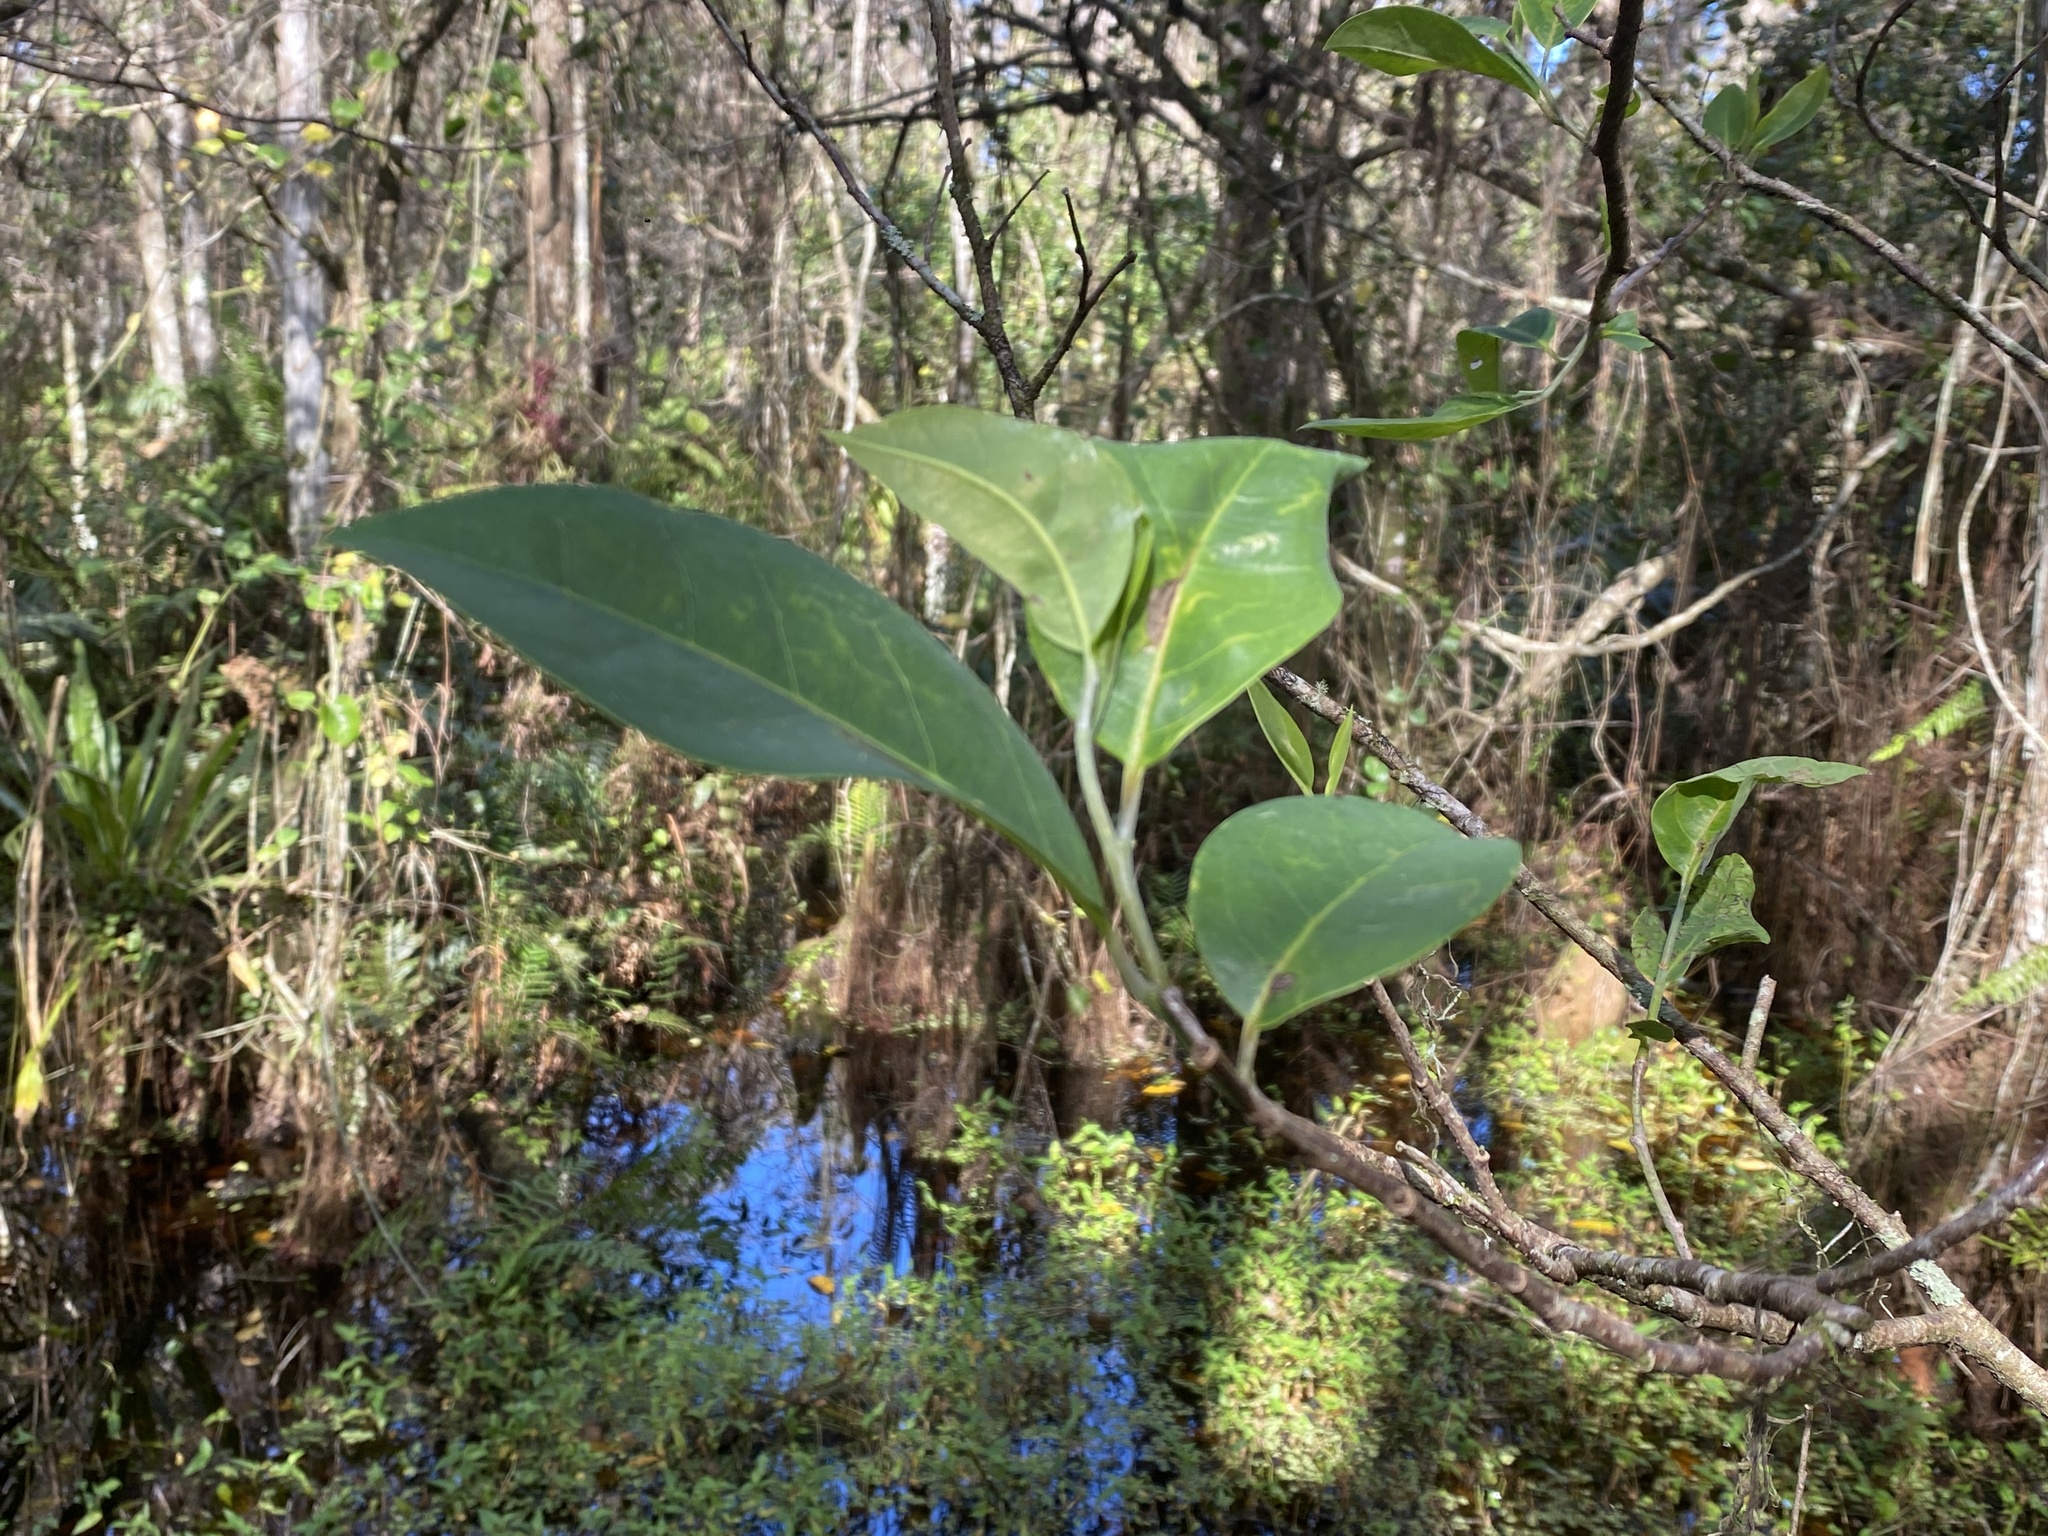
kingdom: Plantae
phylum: Tracheophyta
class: Magnoliopsida
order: Magnoliales
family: Annonaceae
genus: Annona
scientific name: Annona glabra
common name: Monkey apple
